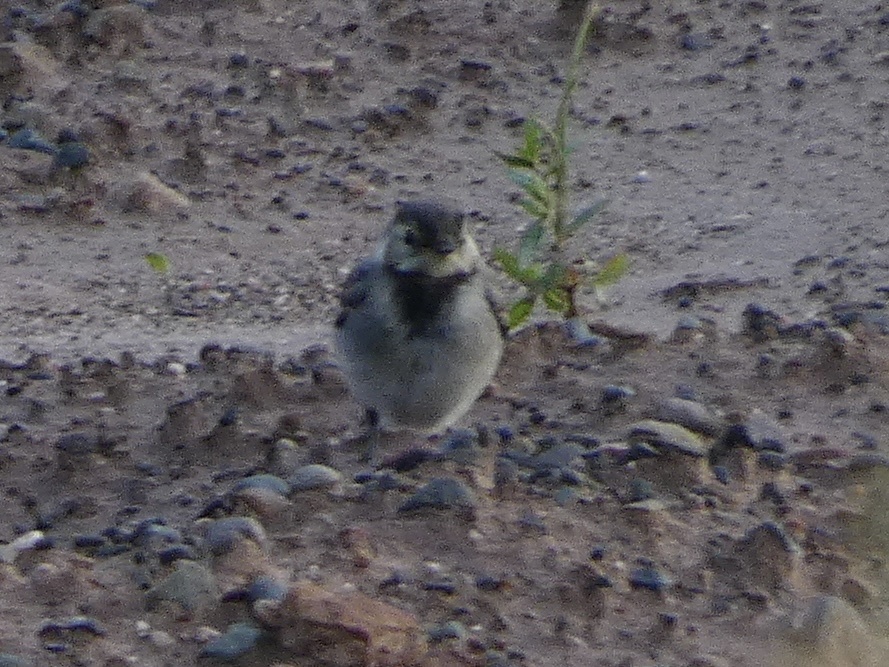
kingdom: Animalia
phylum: Chordata
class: Aves
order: Passeriformes
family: Motacillidae
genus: Motacilla
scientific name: Motacilla alba
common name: White wagtail
